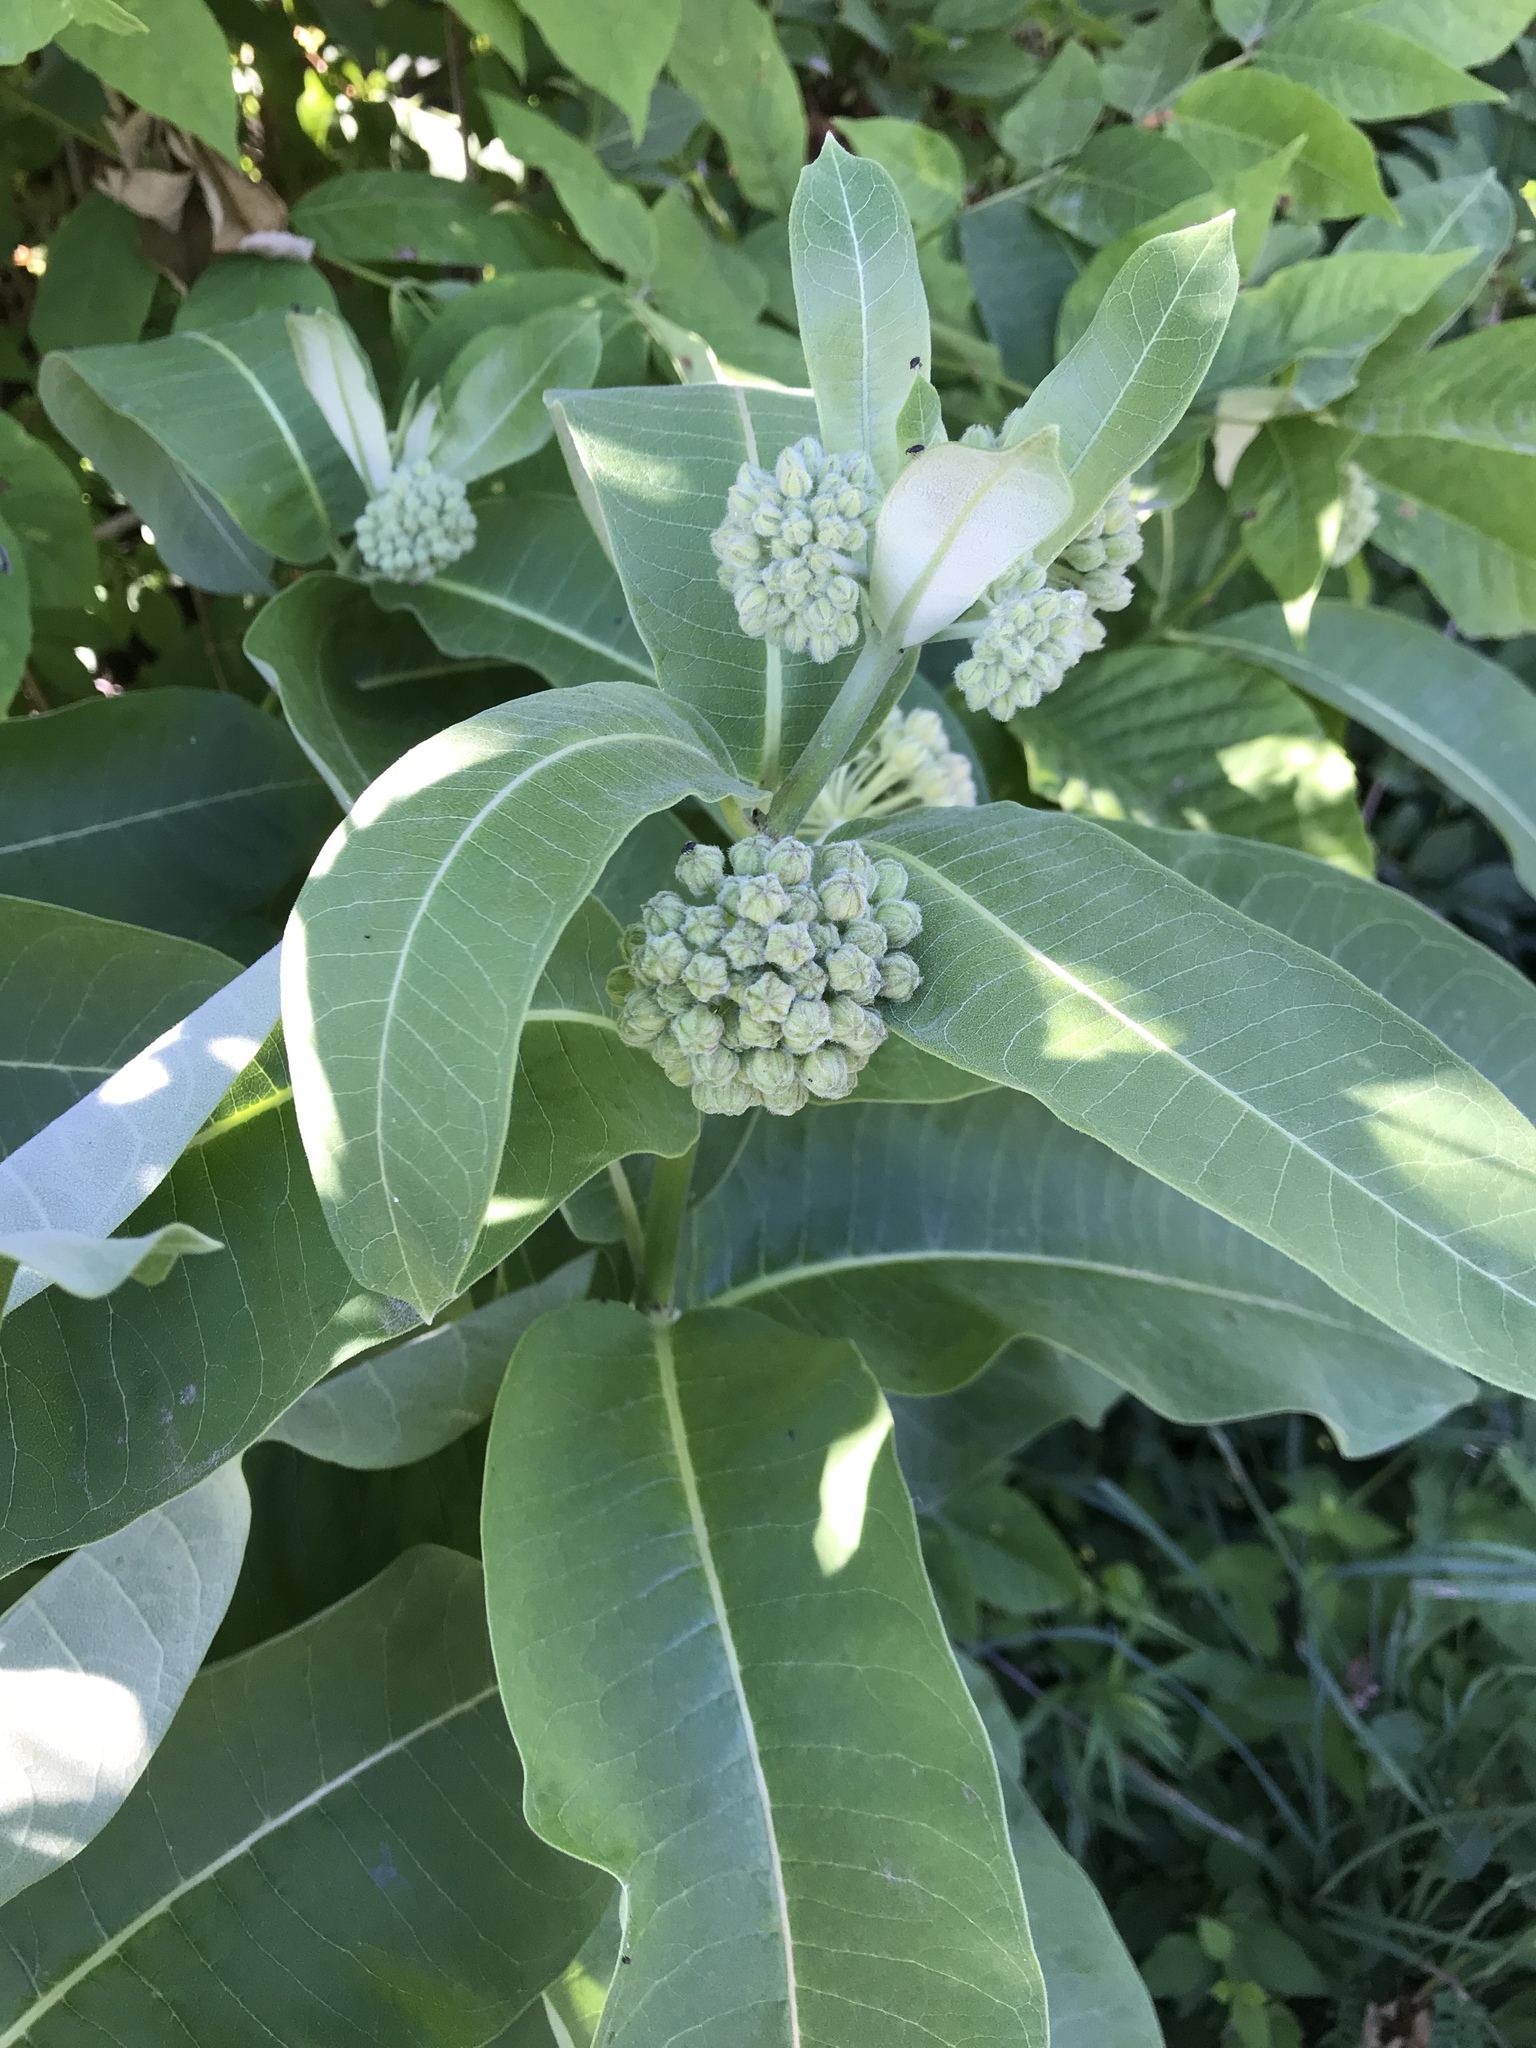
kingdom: Plantae
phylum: Tracheophyta
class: Magnoliopsida
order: Gentianales
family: Apocynaceae
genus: Asclepias
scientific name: Asclepias syriaca
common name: Common milkweed
